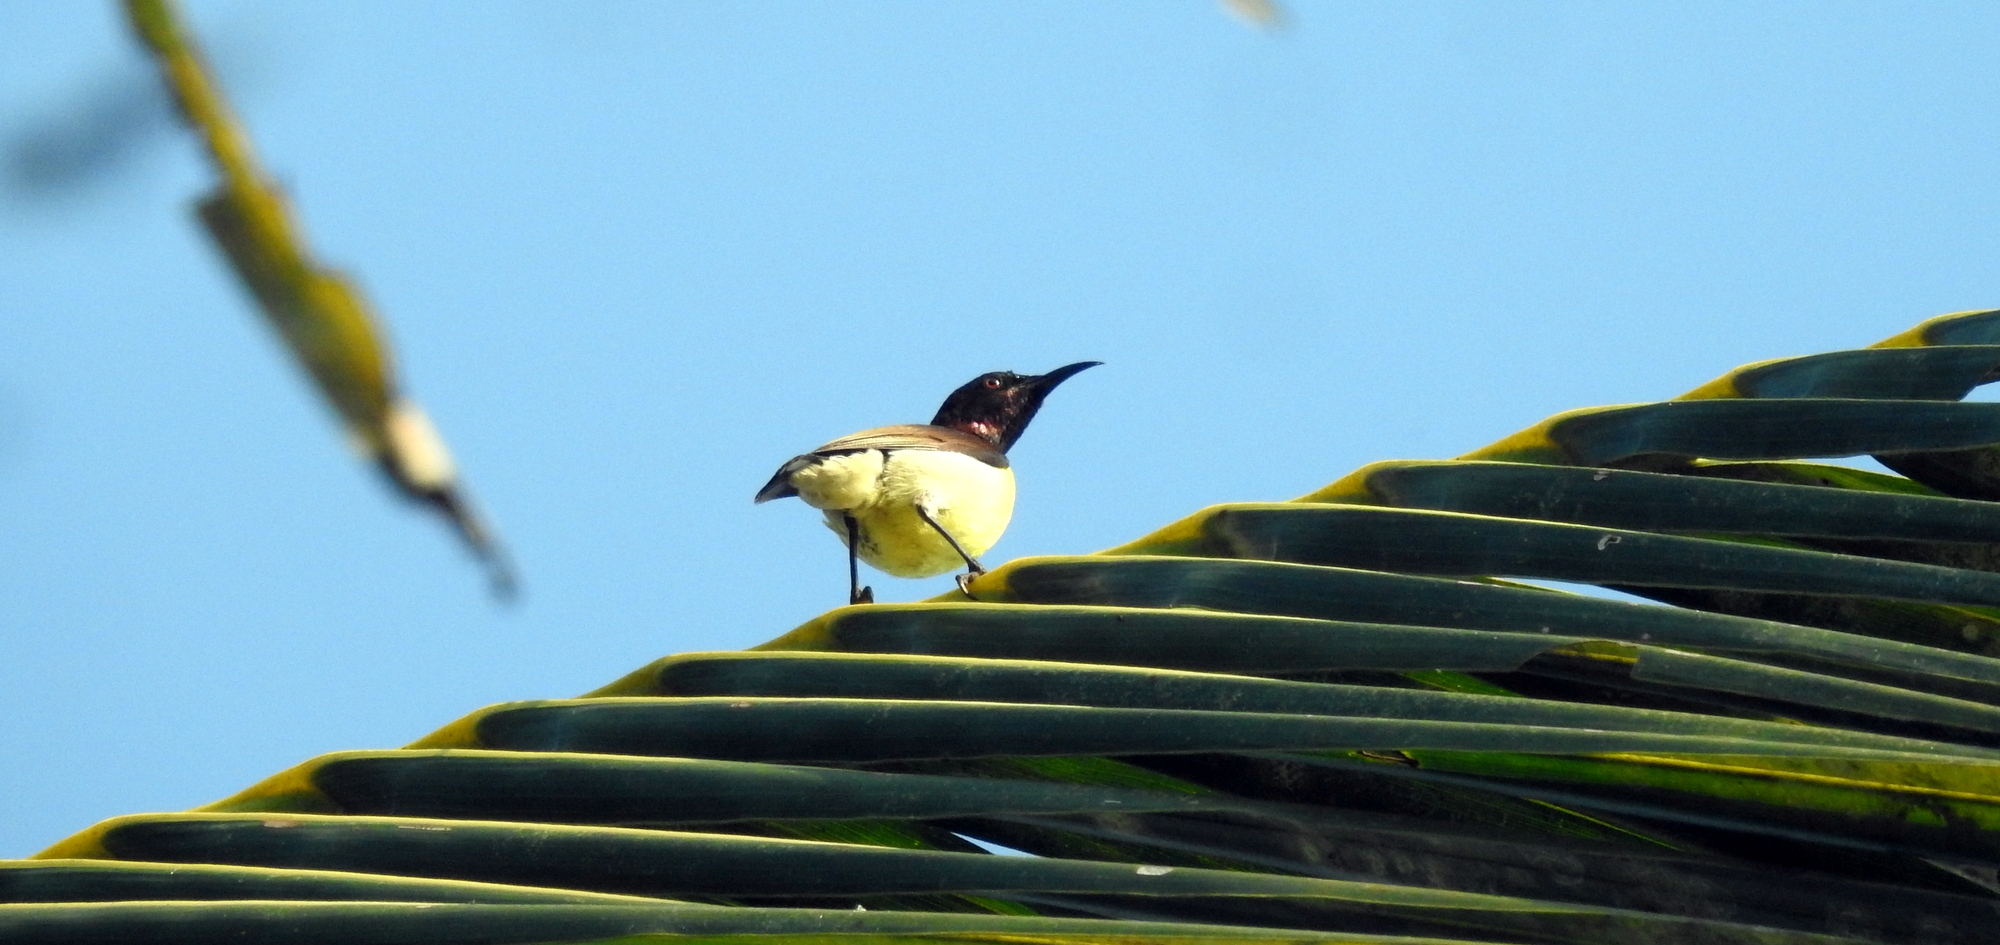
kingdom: Animalia
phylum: Chordata
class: Aves
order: Passeriformes
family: Nectariniidae
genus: Leptocoma
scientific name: Leptocoma zeylonica
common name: Purple-rumped sunbird
